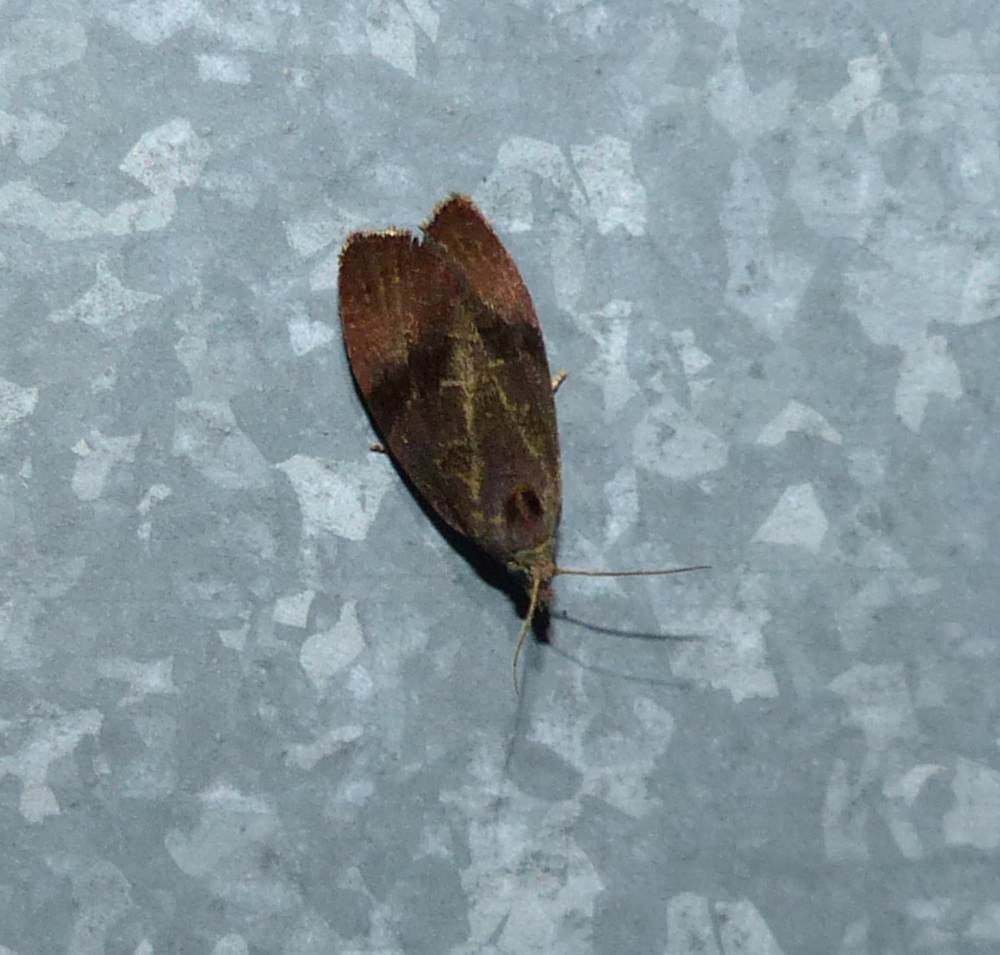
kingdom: Animalia
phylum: Arthropoda
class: Insecta
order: Lepidoptera
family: Tortricidae
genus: Evora
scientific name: Evora hemidesma
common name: Spirea leaftier moth
